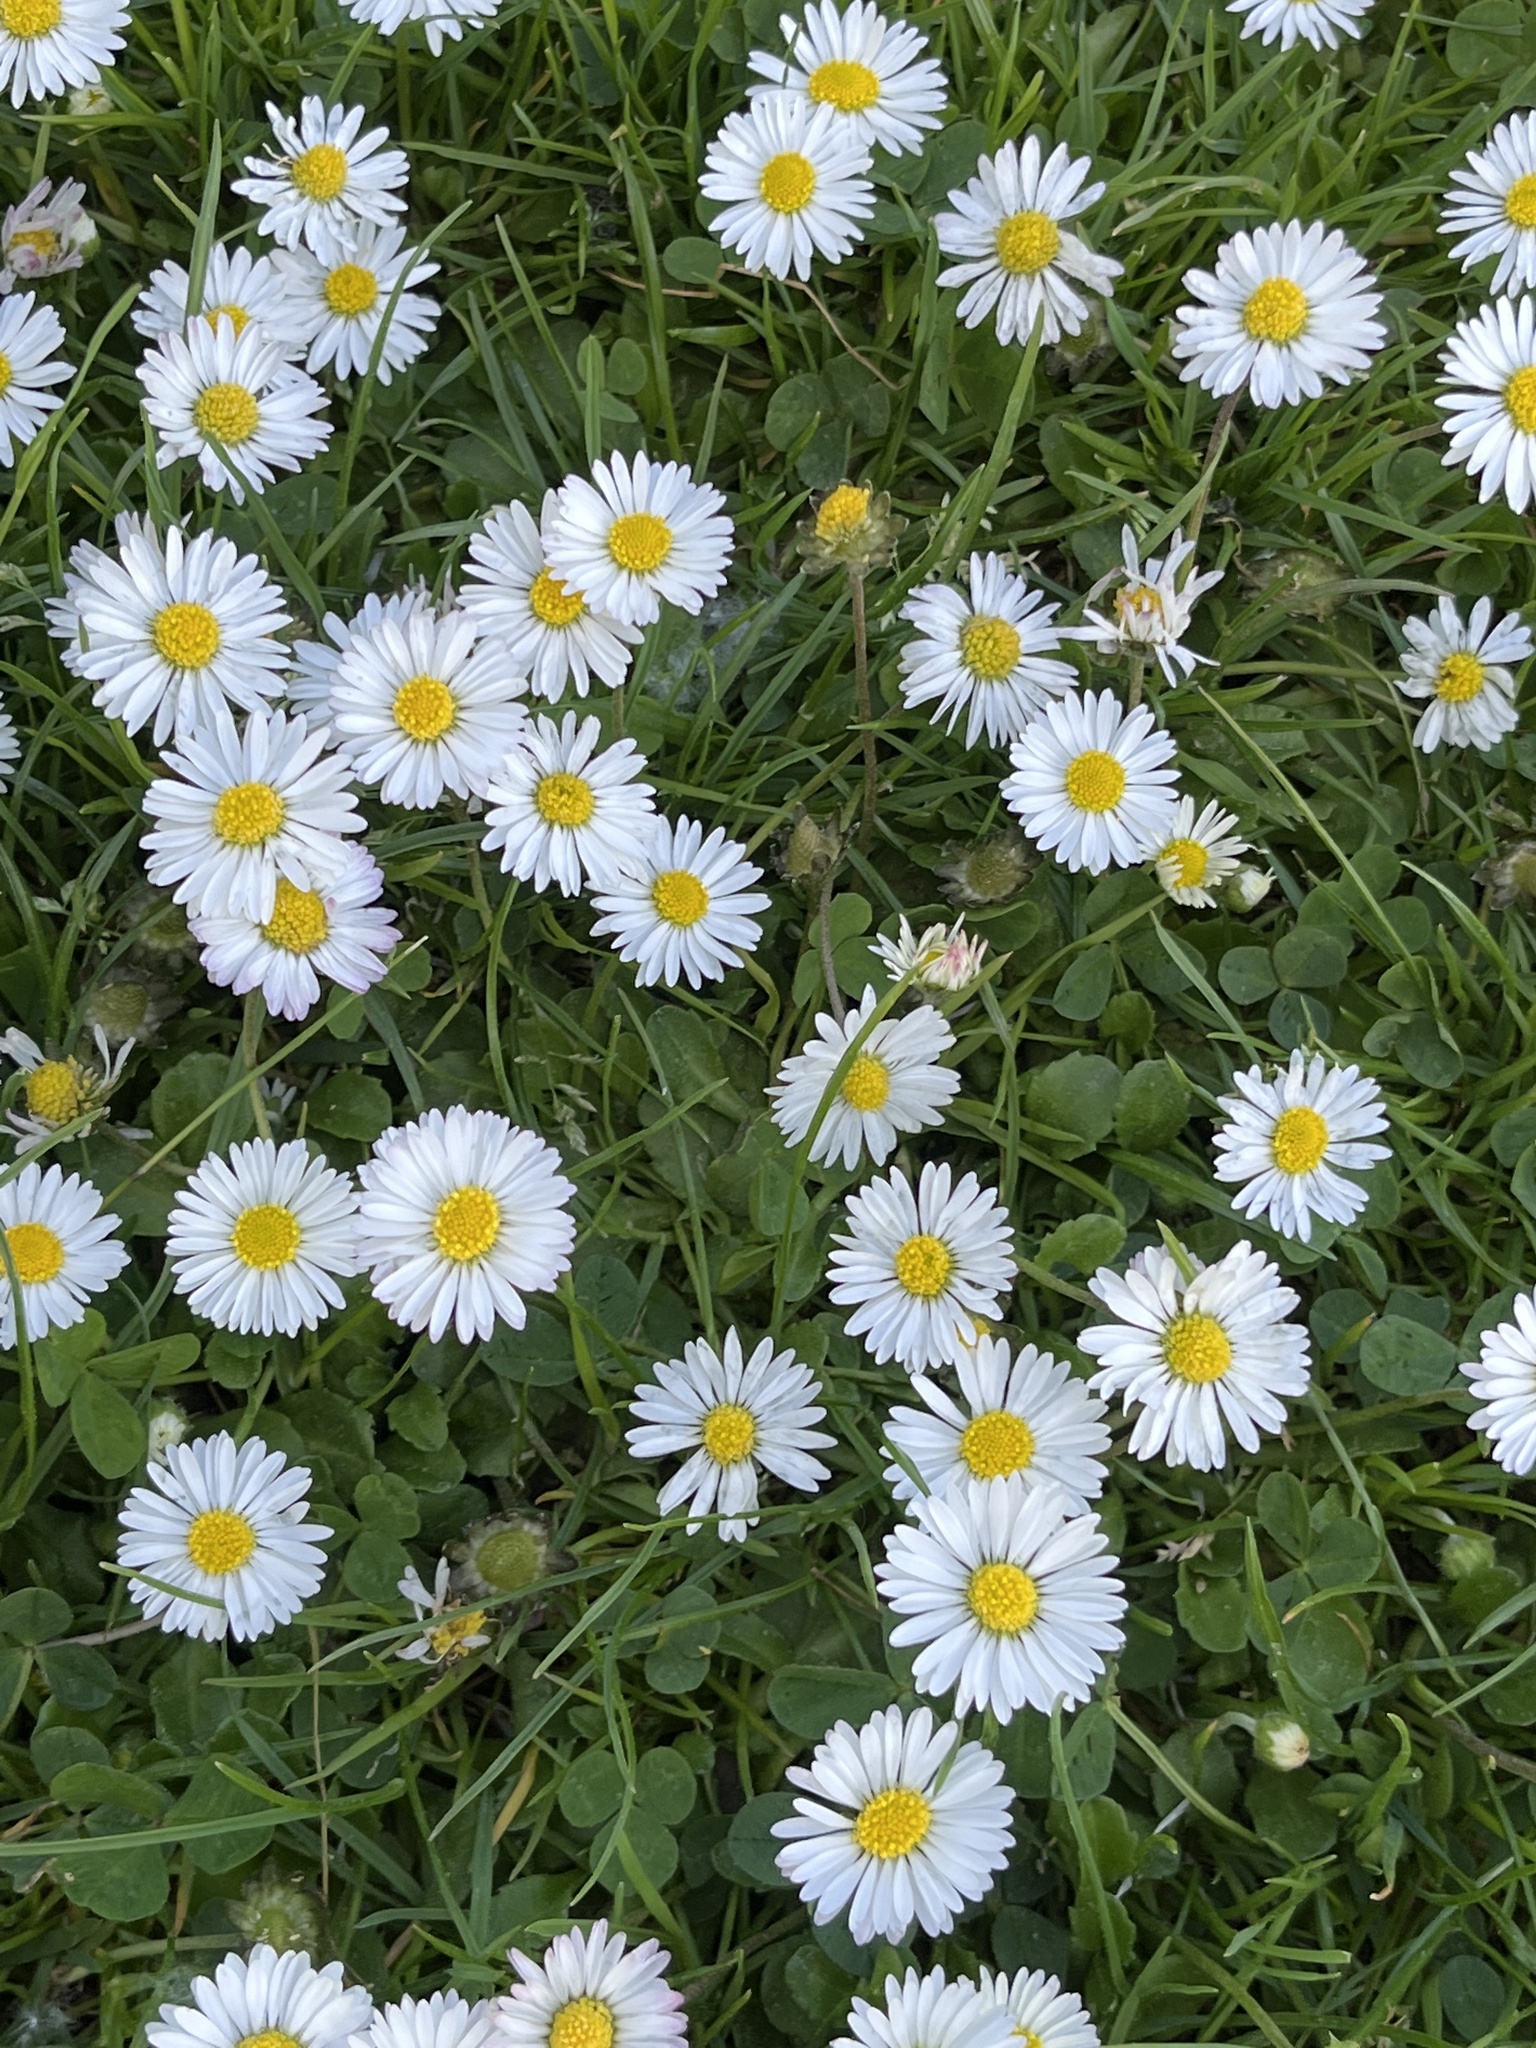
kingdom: Plantae
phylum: Tracheophyta
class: Magnoliopsida
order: Asterales
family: Asteraceae
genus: Bellis
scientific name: Bellis perennis
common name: Lawndaisy
